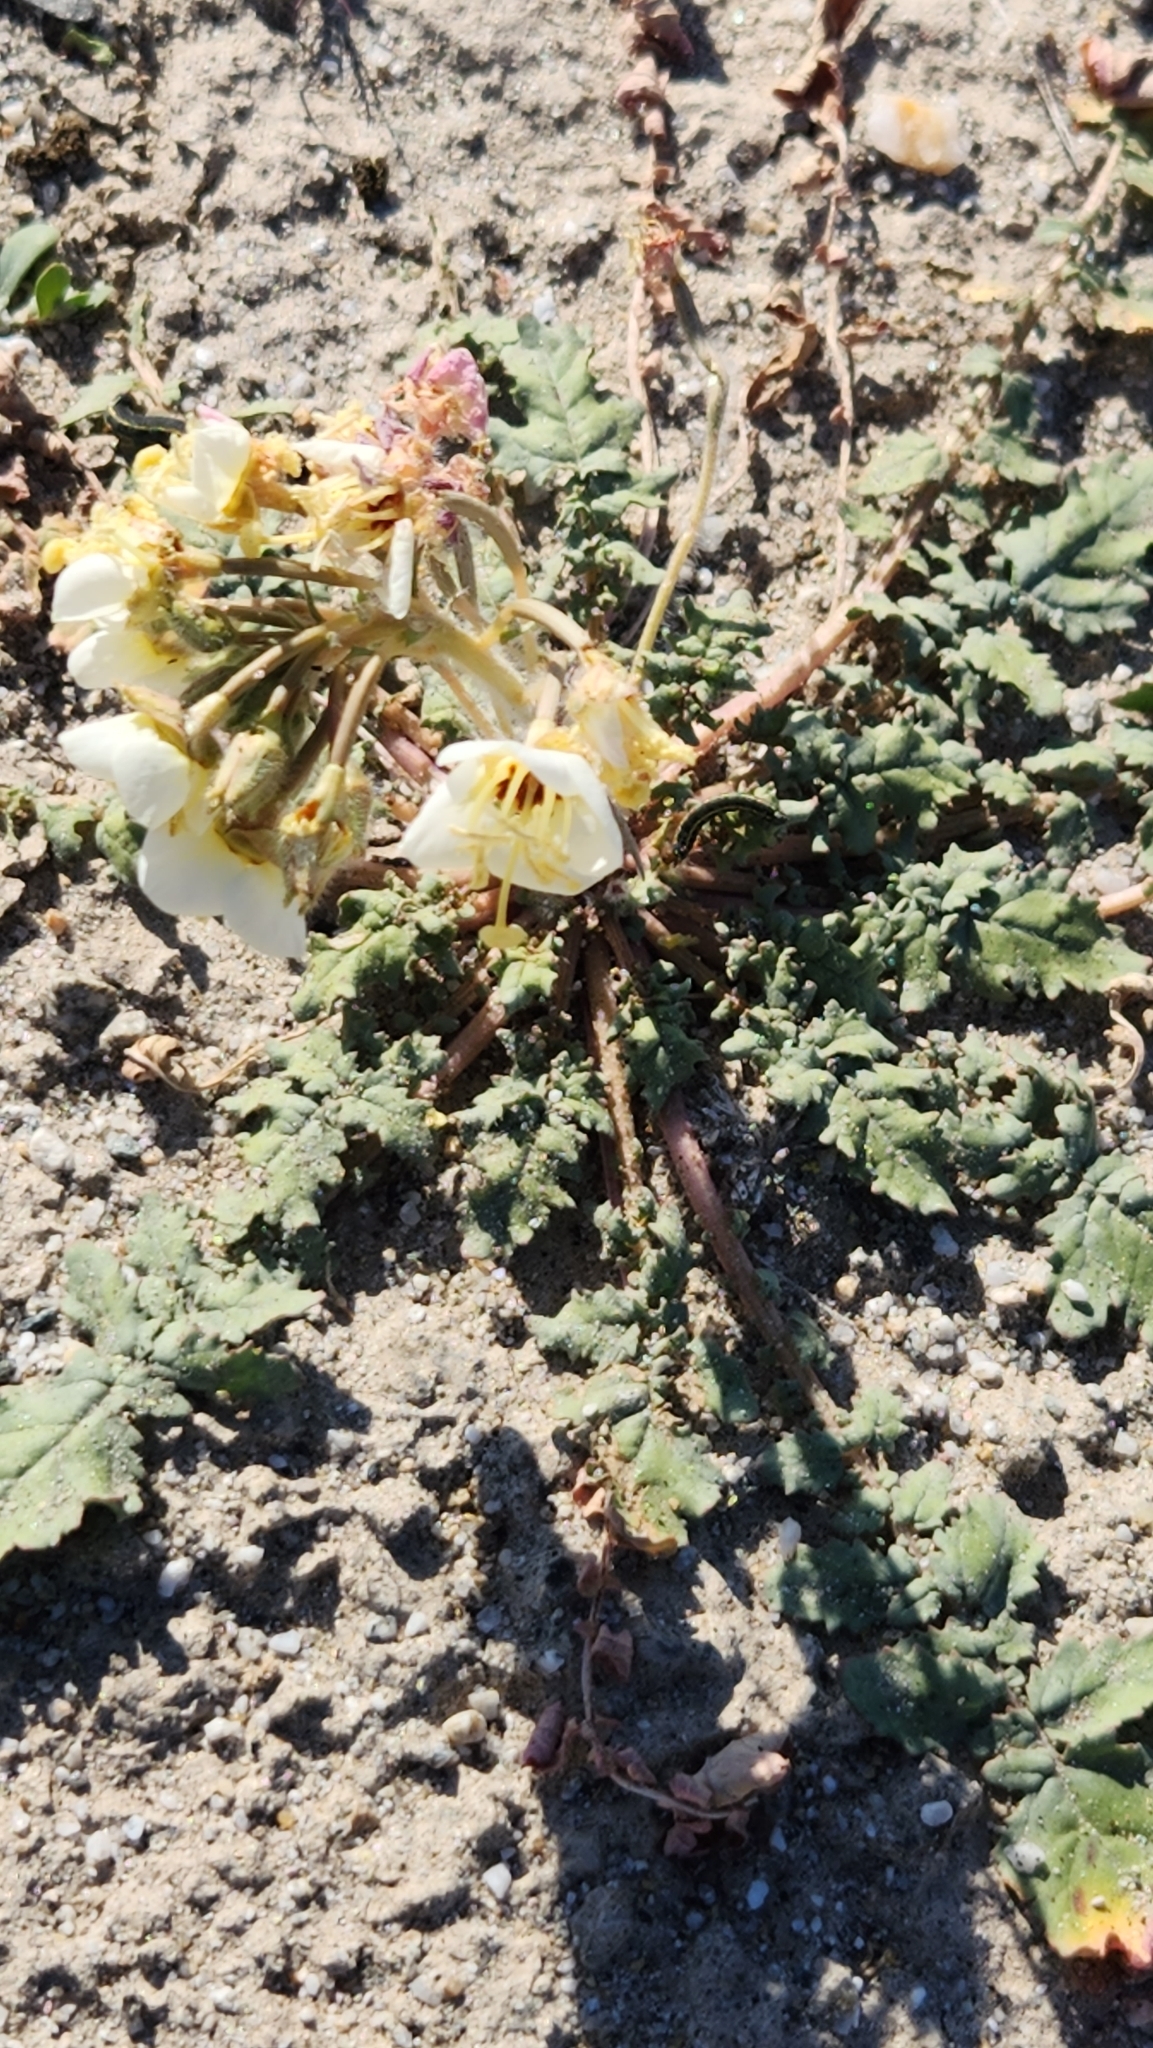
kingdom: Plantae
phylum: Tracheophyta
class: Magnoliopsida
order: Myrtales
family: Onagraceae
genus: Chylismia
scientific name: Chylismia claviformis
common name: Browneyes
